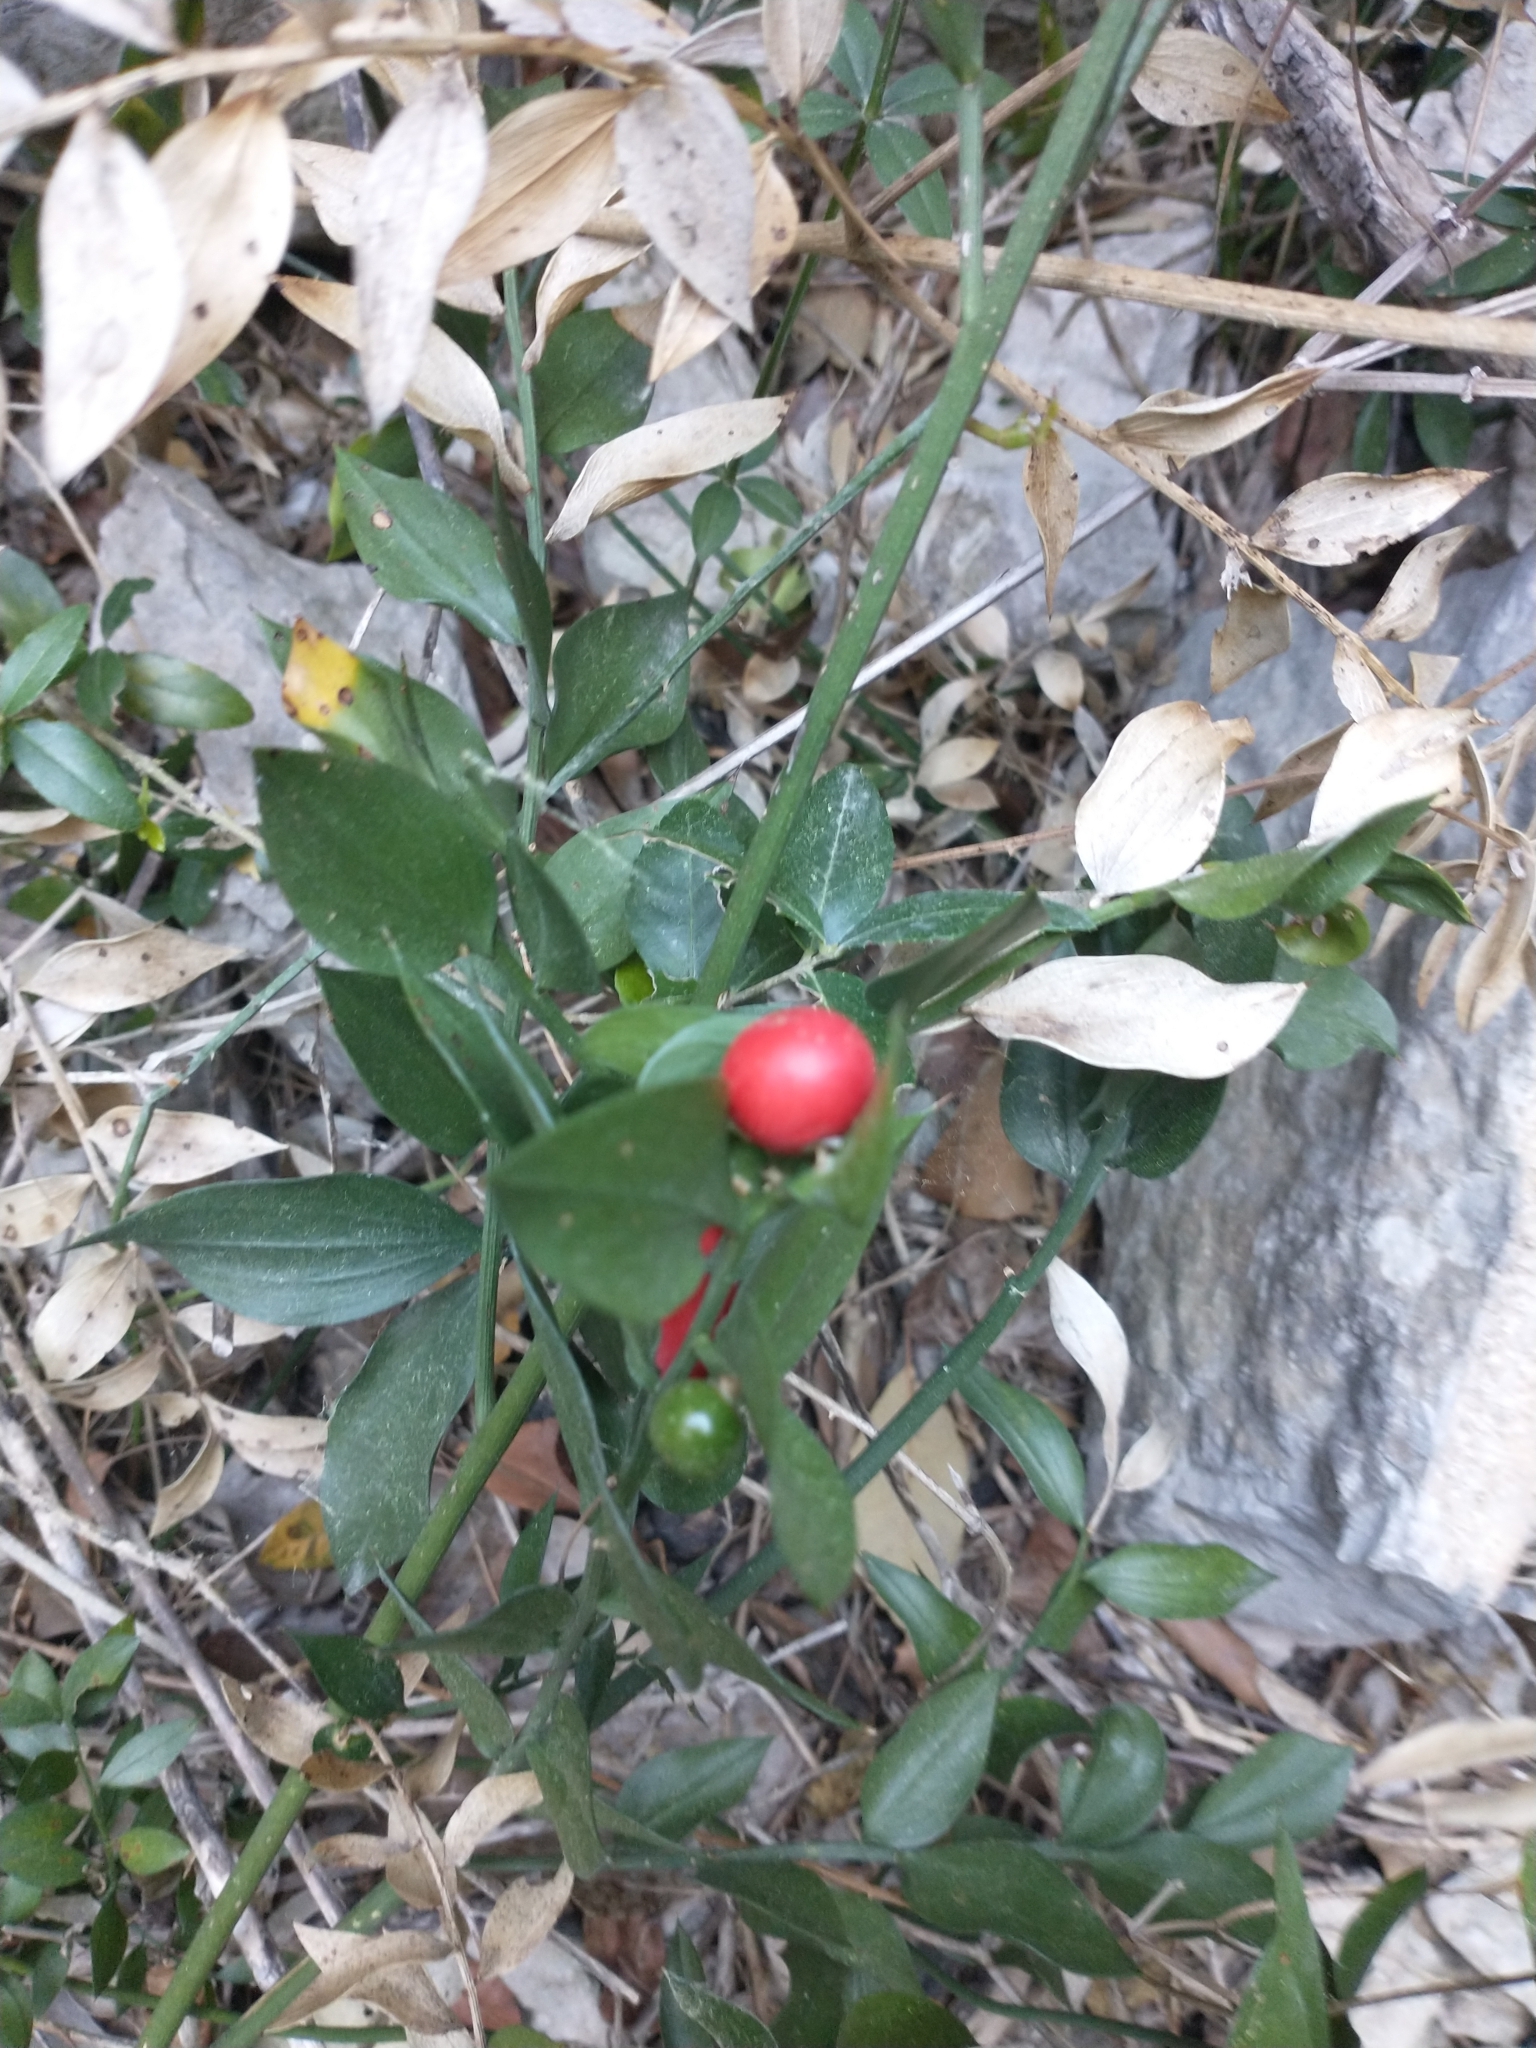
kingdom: Plantae
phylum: Tracheophyta
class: Liliopsida
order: Asparagales
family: Asparagaceae
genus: Ruscus
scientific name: Ruscus aculeatus
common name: Butcher's-broom
